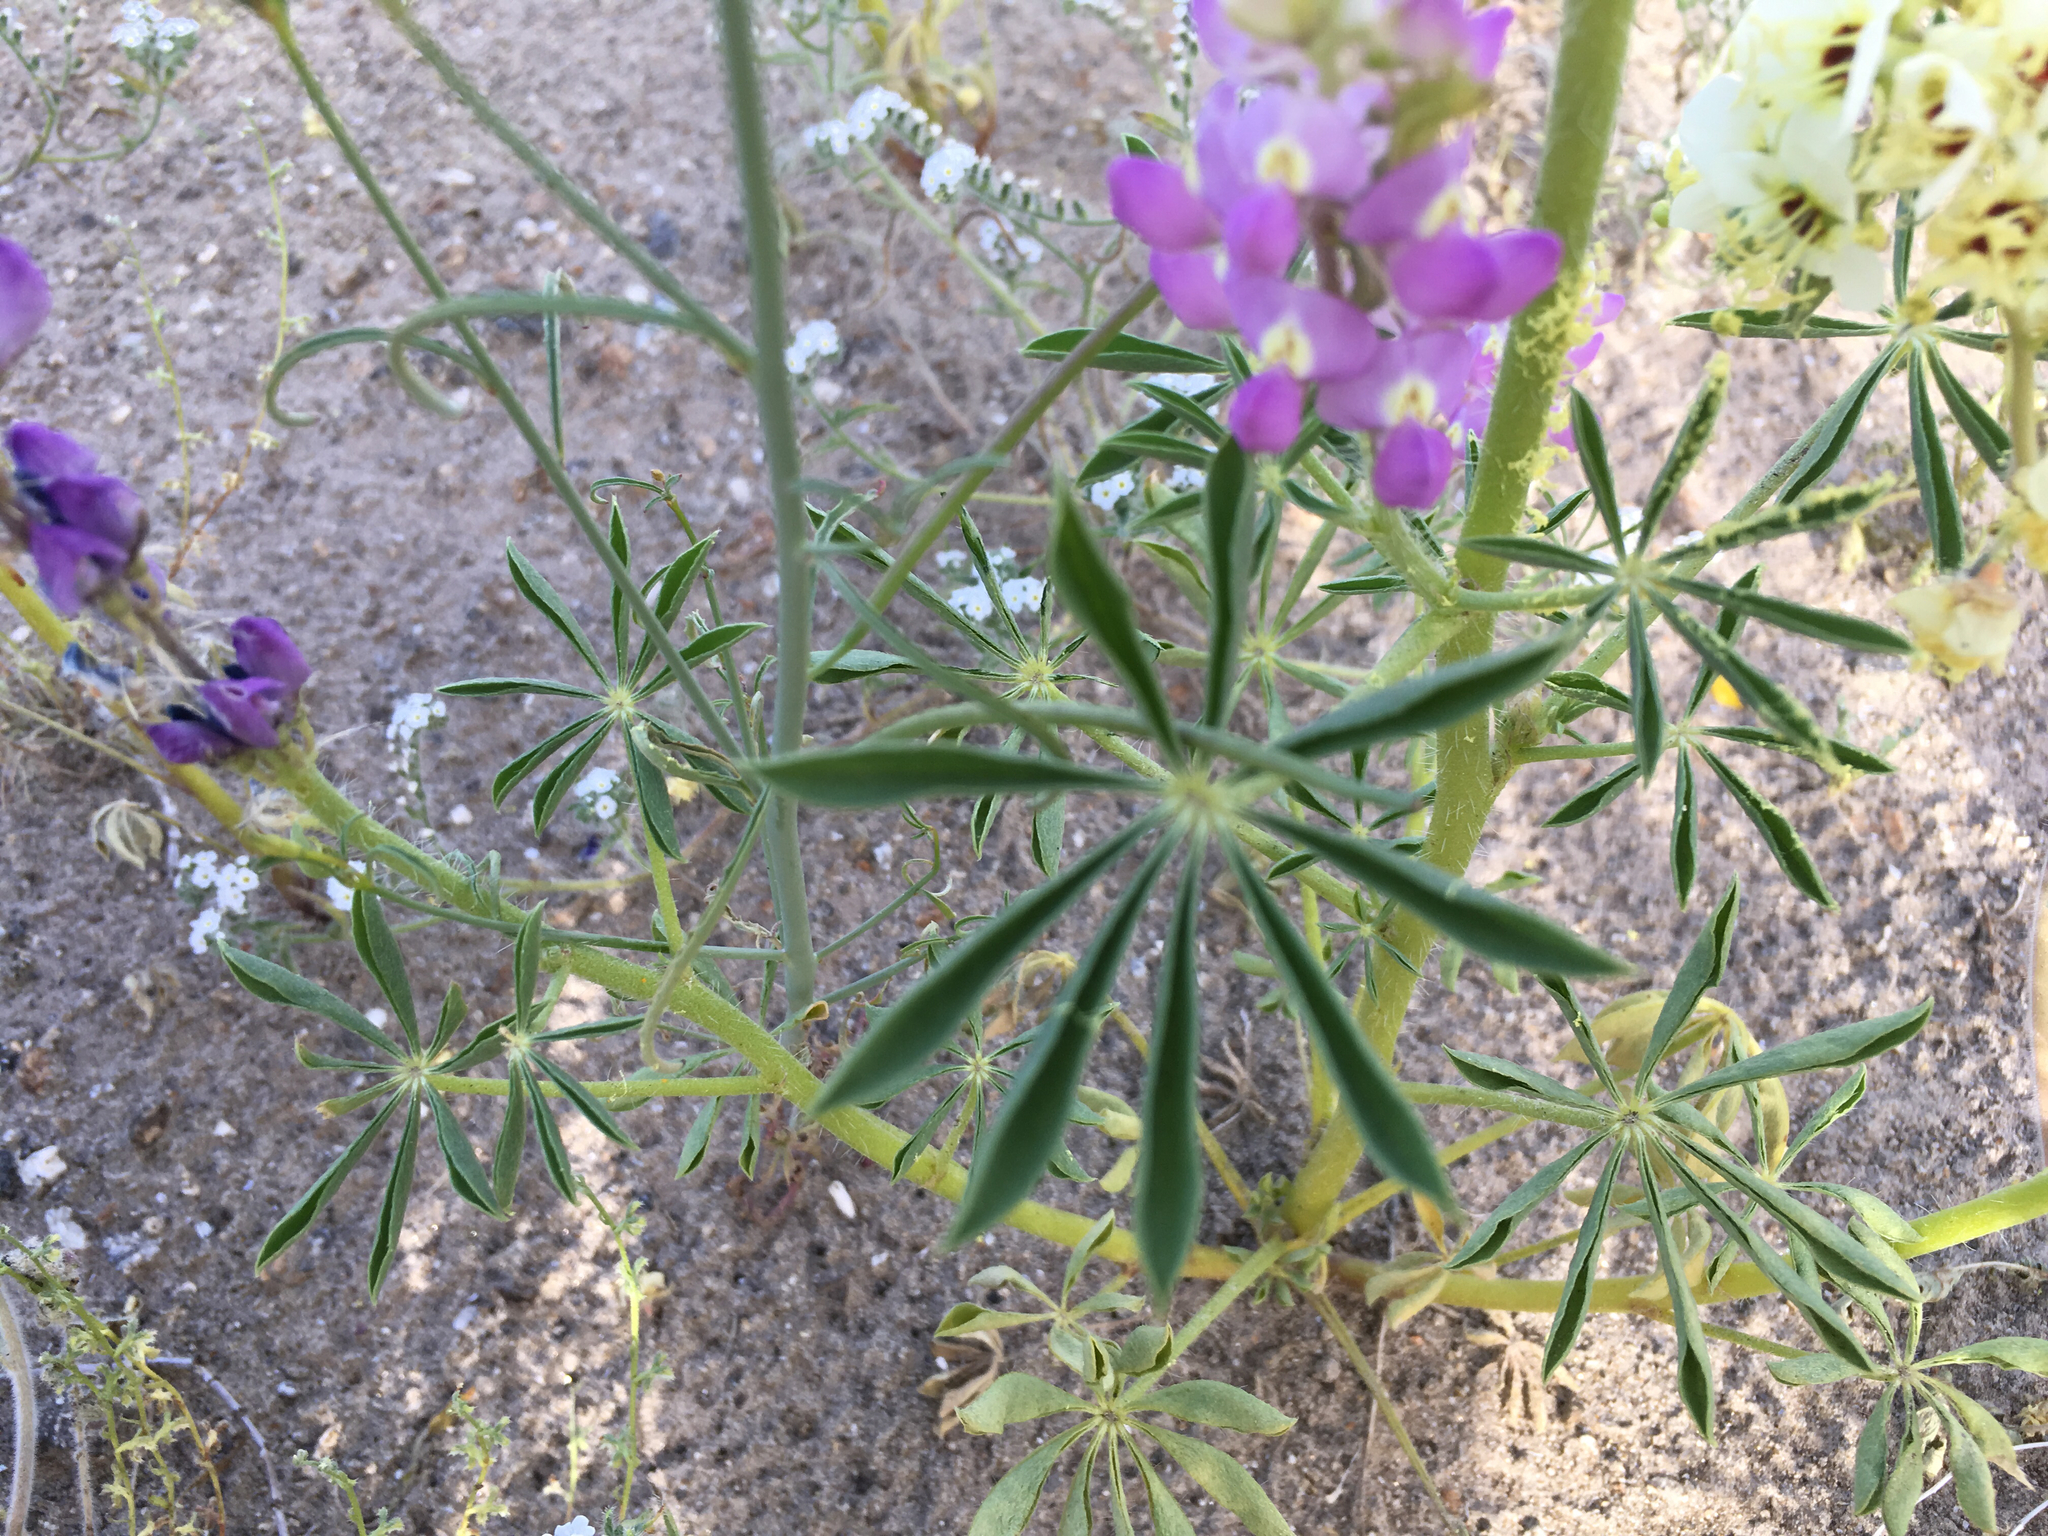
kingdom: Plantae
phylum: Tracheophyta
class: Magnoliopsida
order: Fabales
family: Fabaceae
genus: Lupinus
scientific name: Lupinus arizonicus
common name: Arizona lupine
